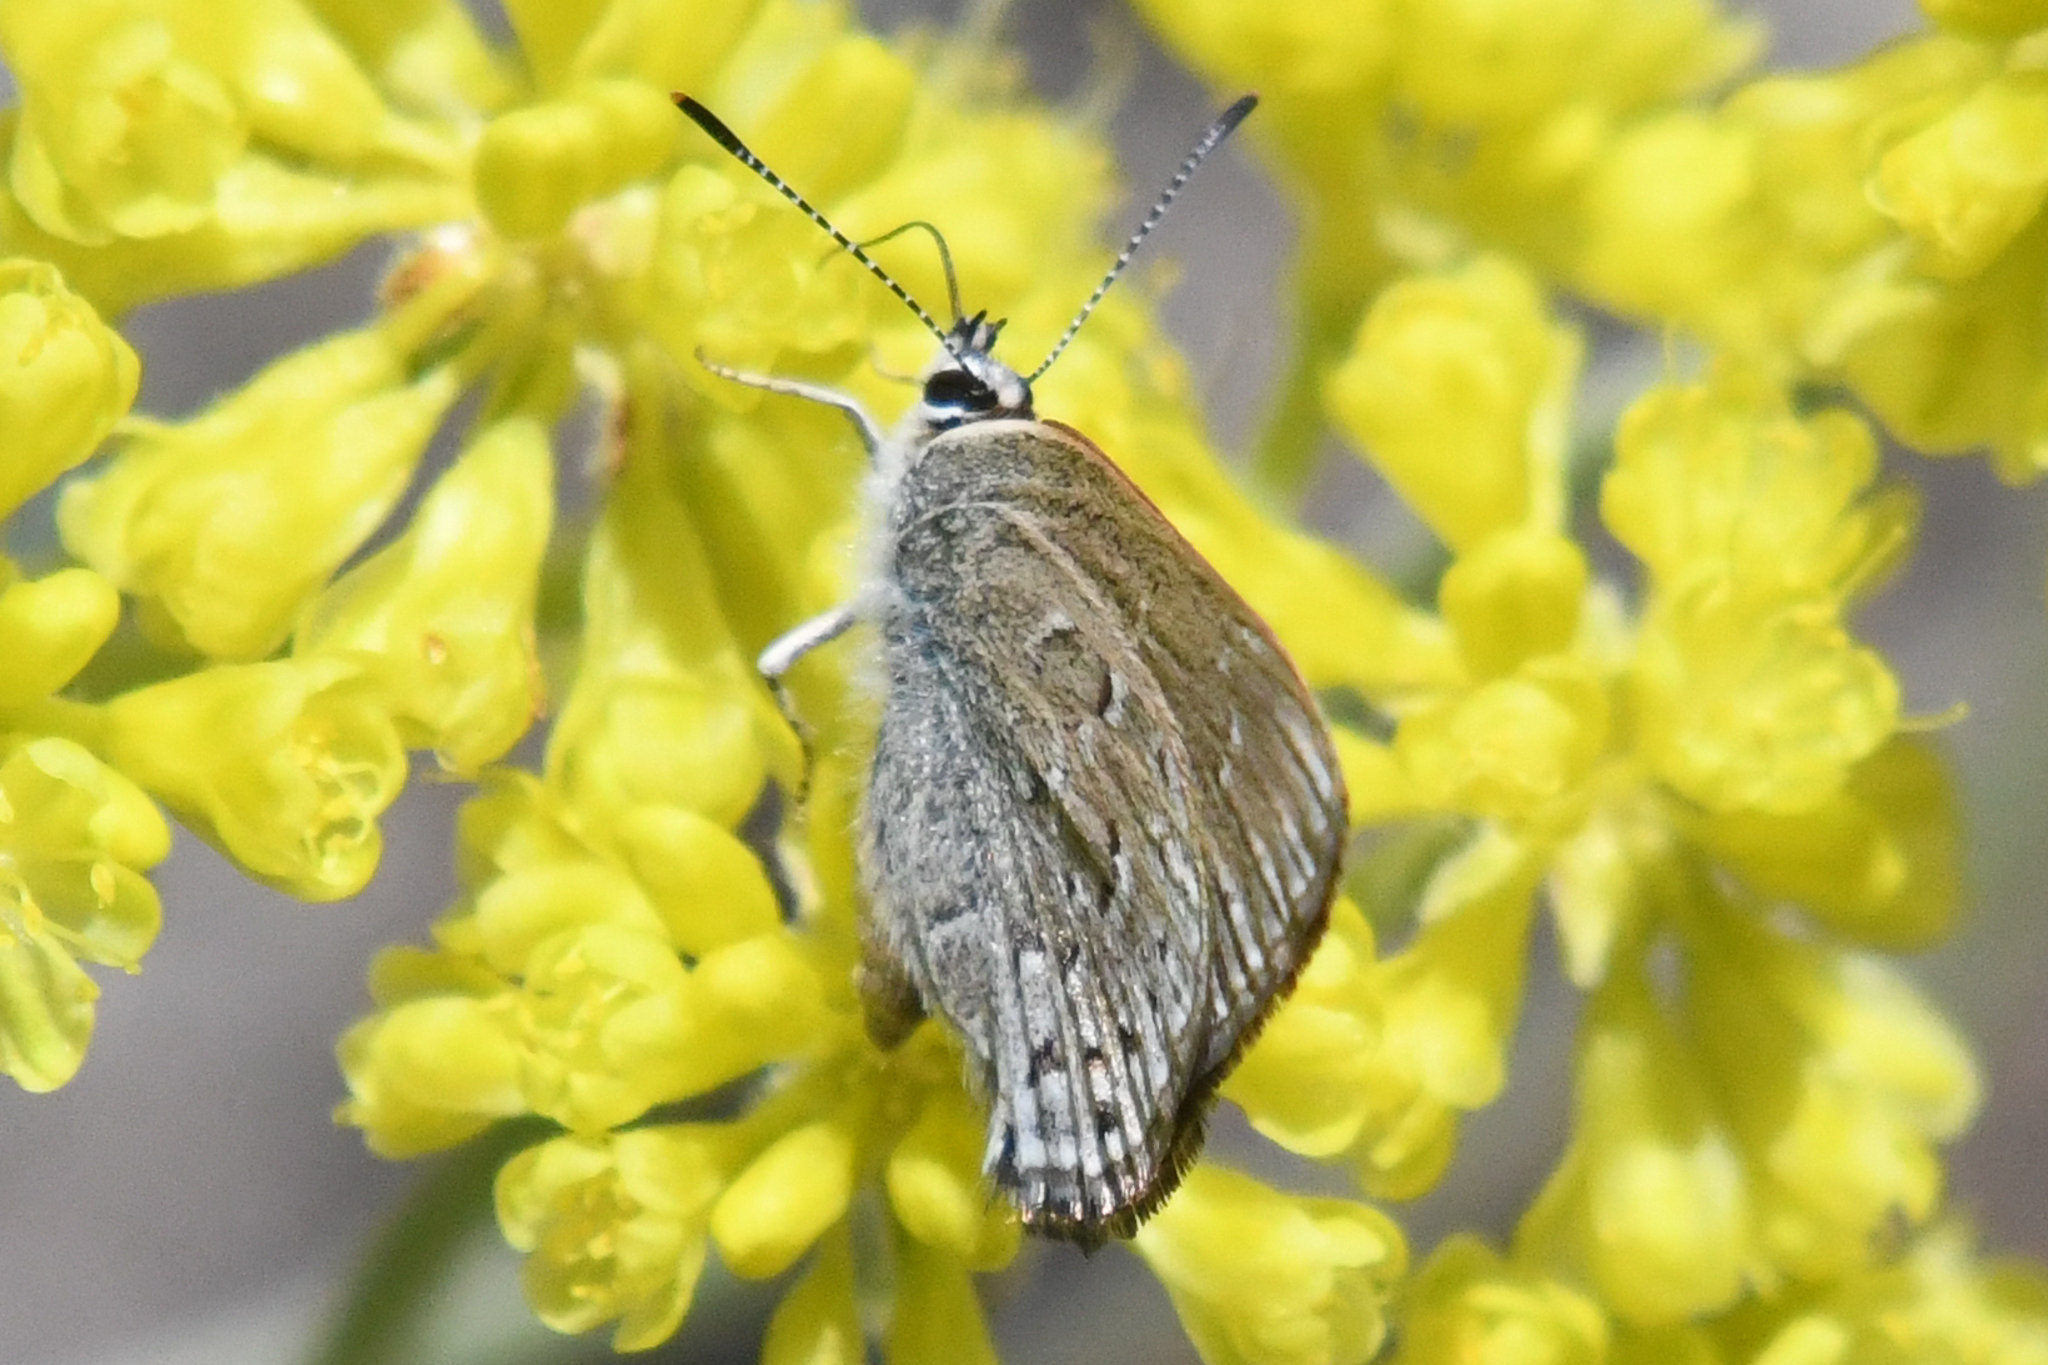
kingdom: Animalia
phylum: Arthropoda
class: Insecta
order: Lepidoptera
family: Lycaenidae
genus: Satyrium
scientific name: Satyrium behrii
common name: Behr's hairstreak
